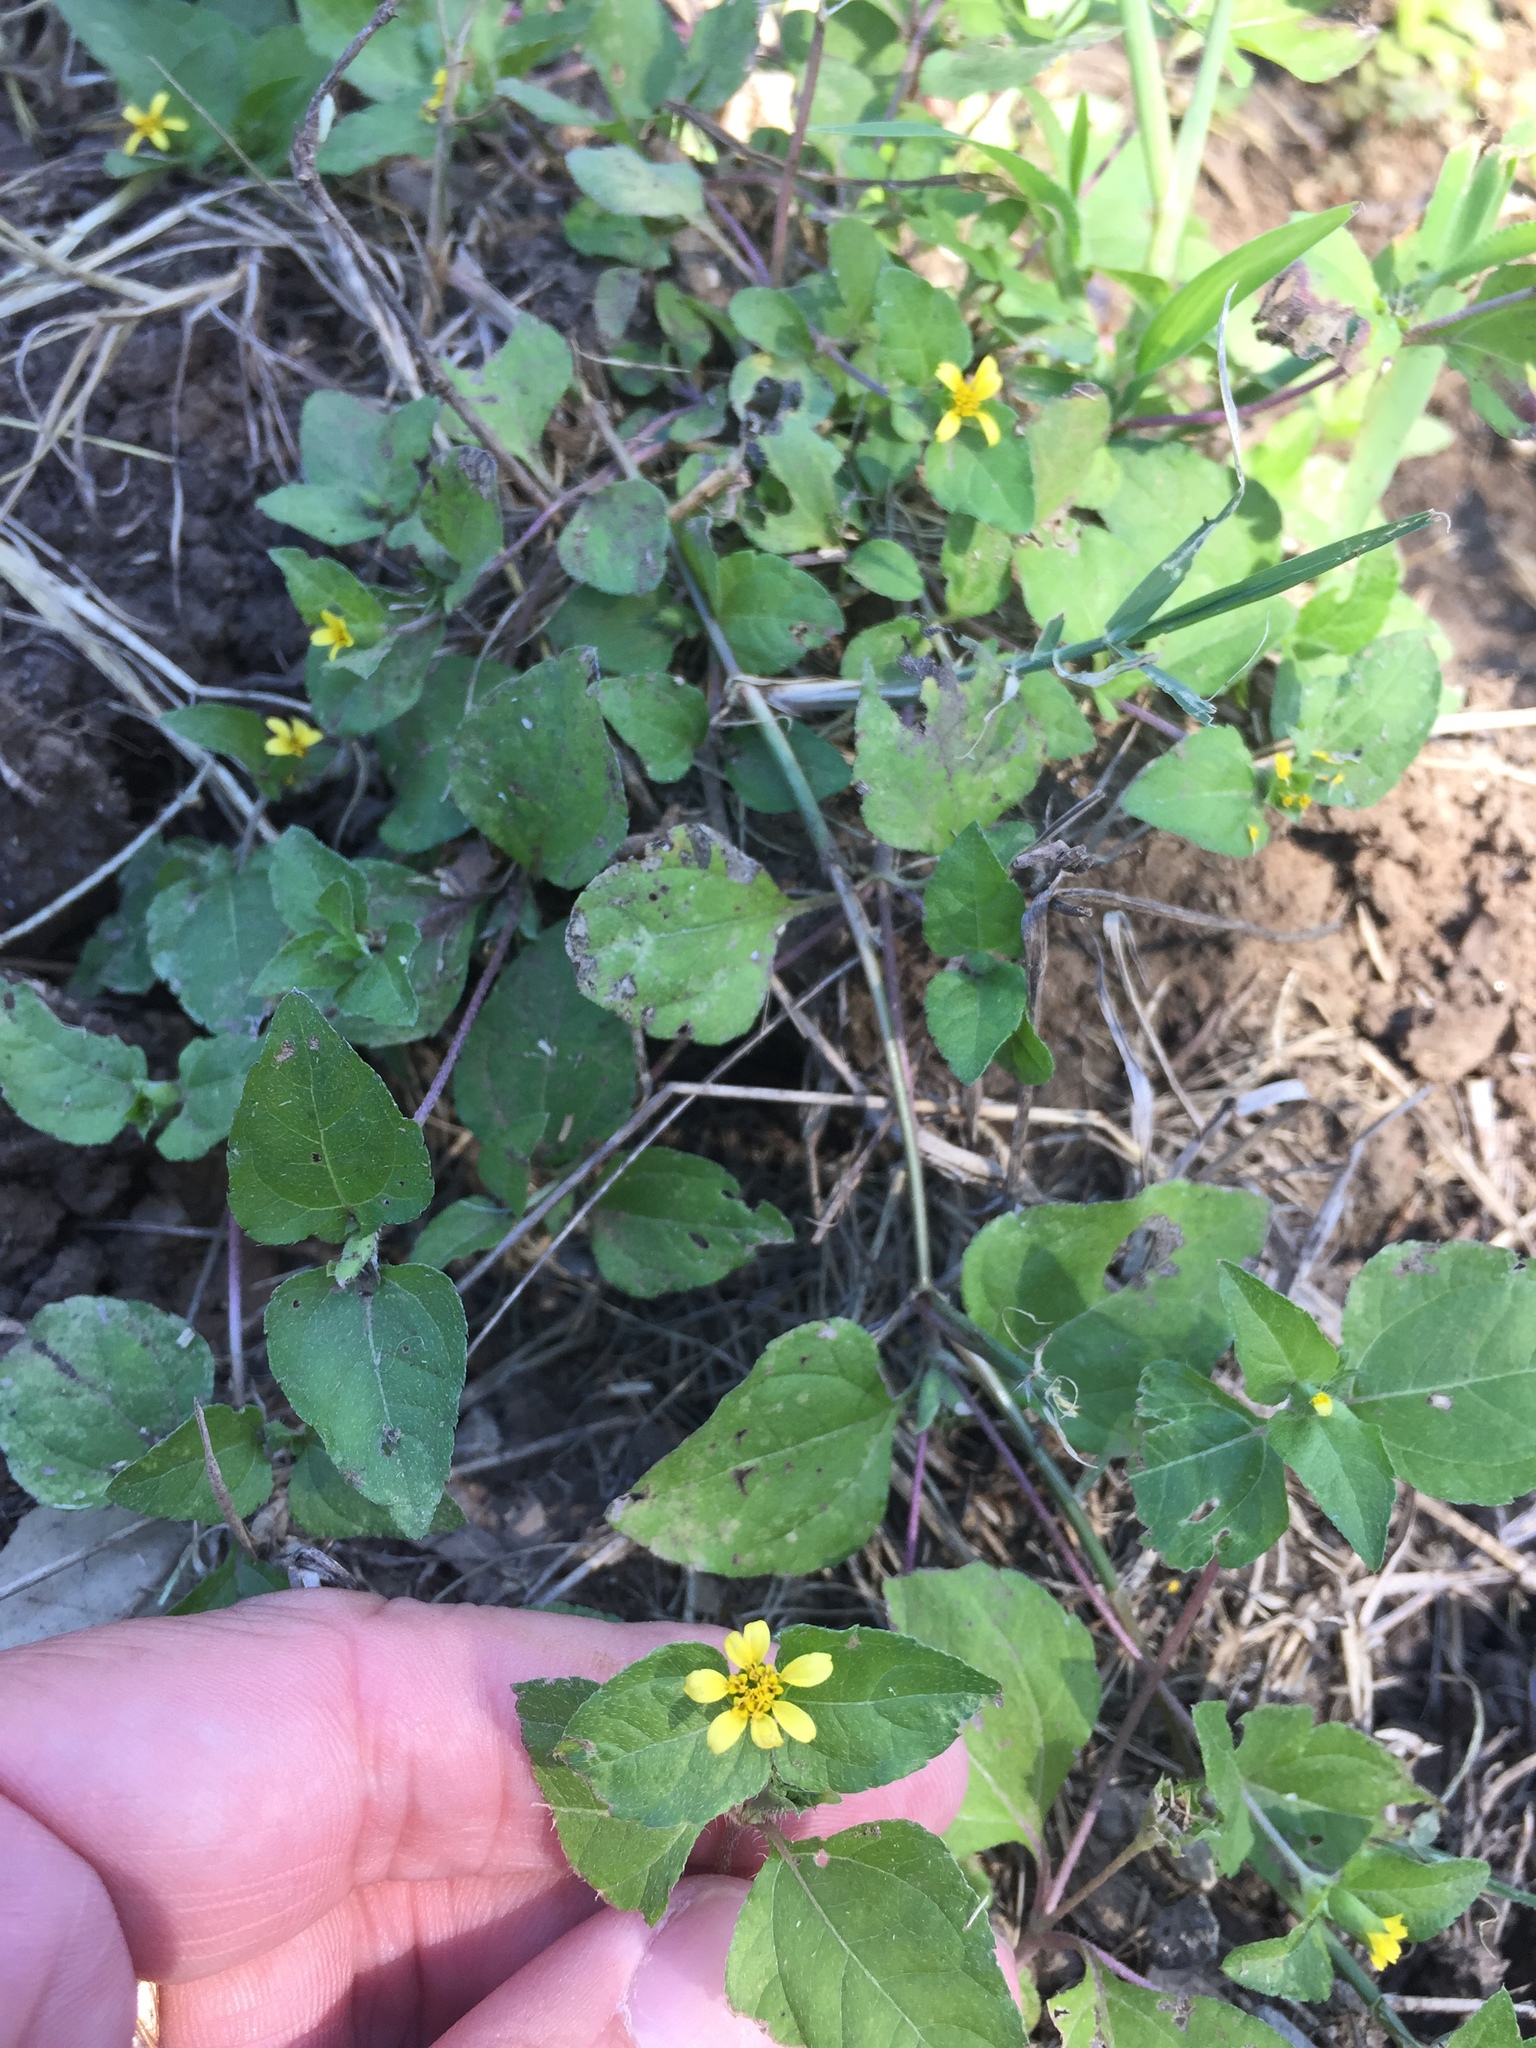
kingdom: Plantae
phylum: Tracheophyta
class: Magnoliopsida
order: Asterales
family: Asteraceae
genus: Calyptocarpus
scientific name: Calyptocarpus vialis
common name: Straggler daisy
